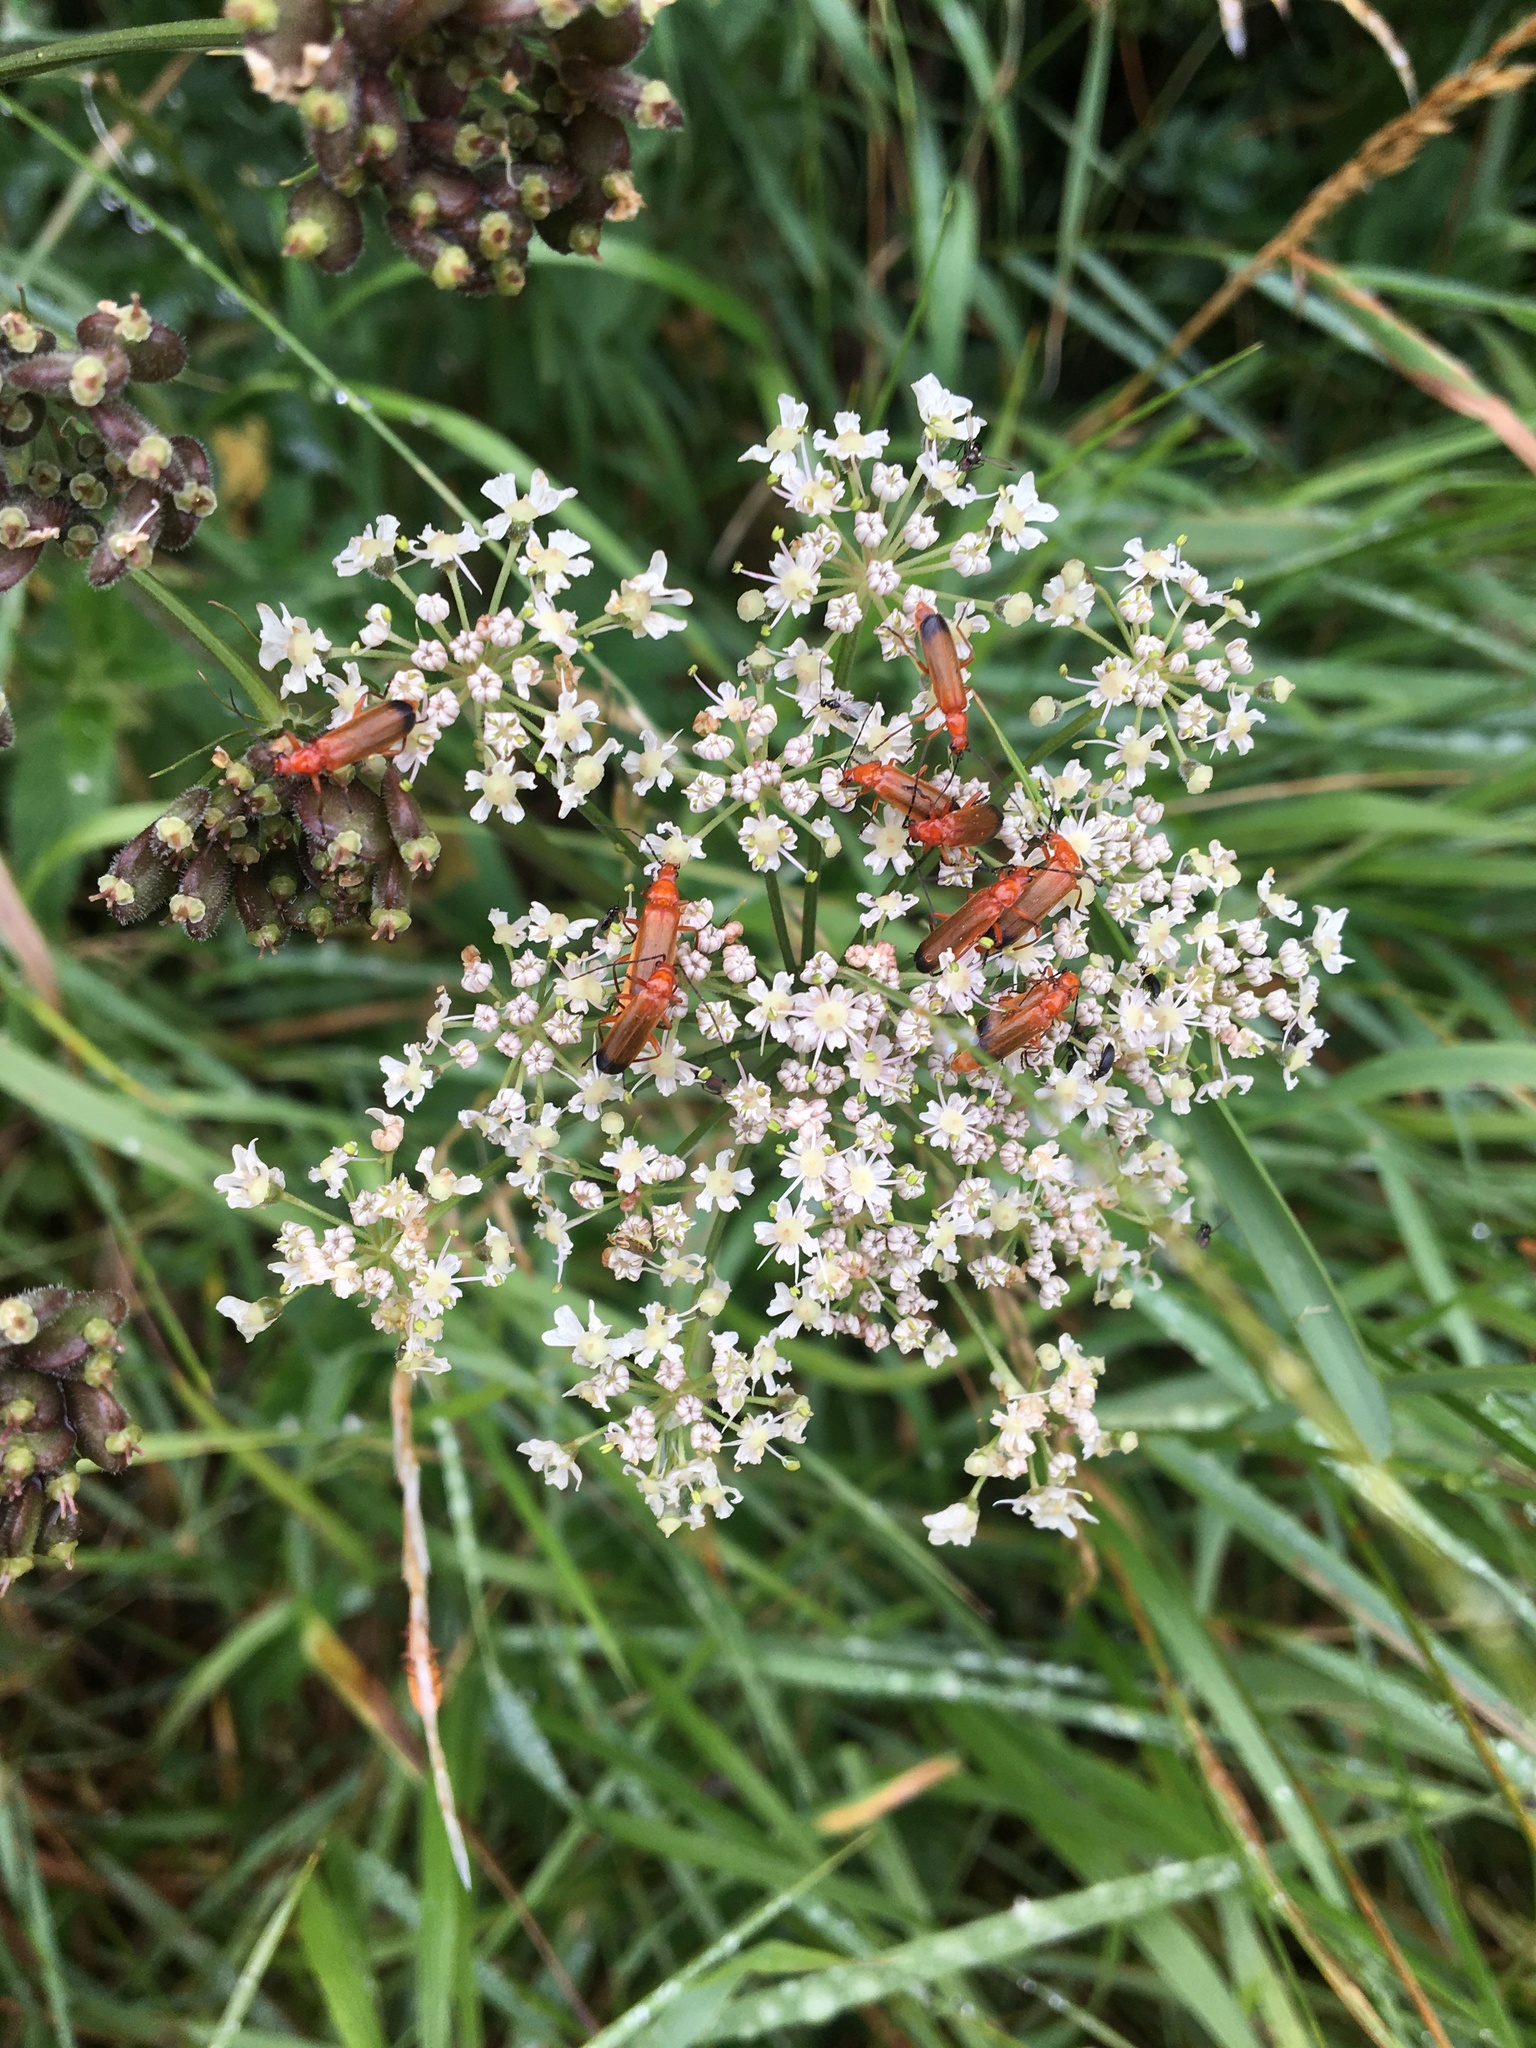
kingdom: Animalia
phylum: Arthropoda
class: Insecta
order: Coleoptera
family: Cantharidae
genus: Rhagonycha
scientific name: Rhagonycha fulva
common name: Common red soldier beetle
